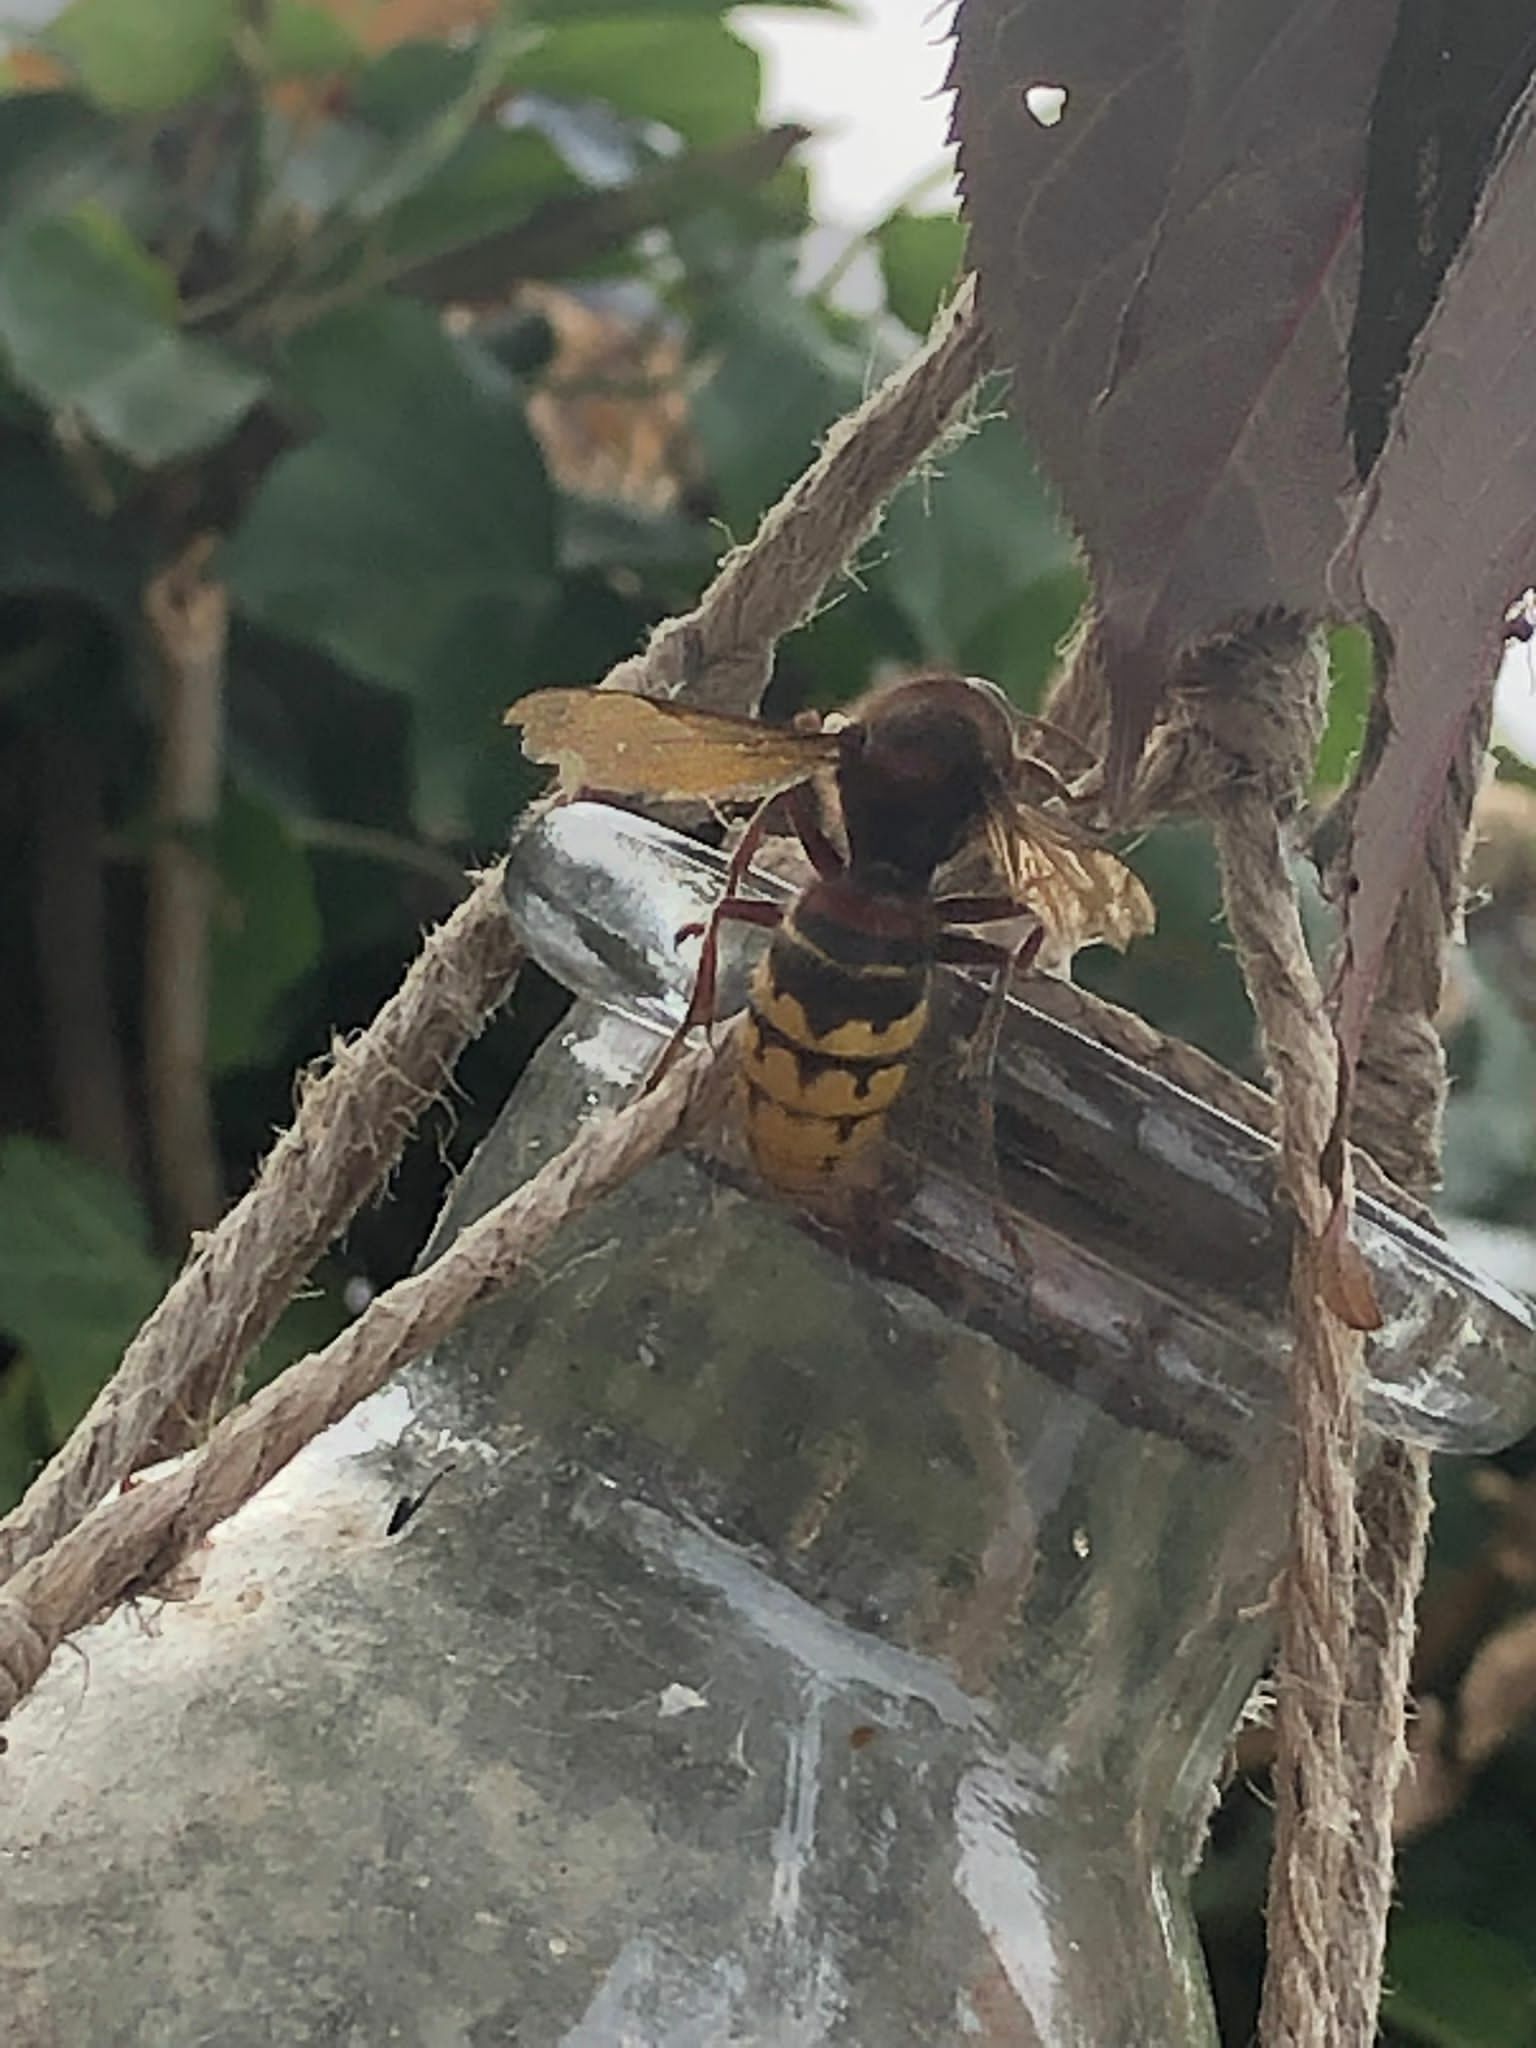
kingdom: Animalia
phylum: Arthropoda
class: Insecta
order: Hymenoptera
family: Vespidae
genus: Vespa
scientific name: Vespa crabro
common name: Hornet
